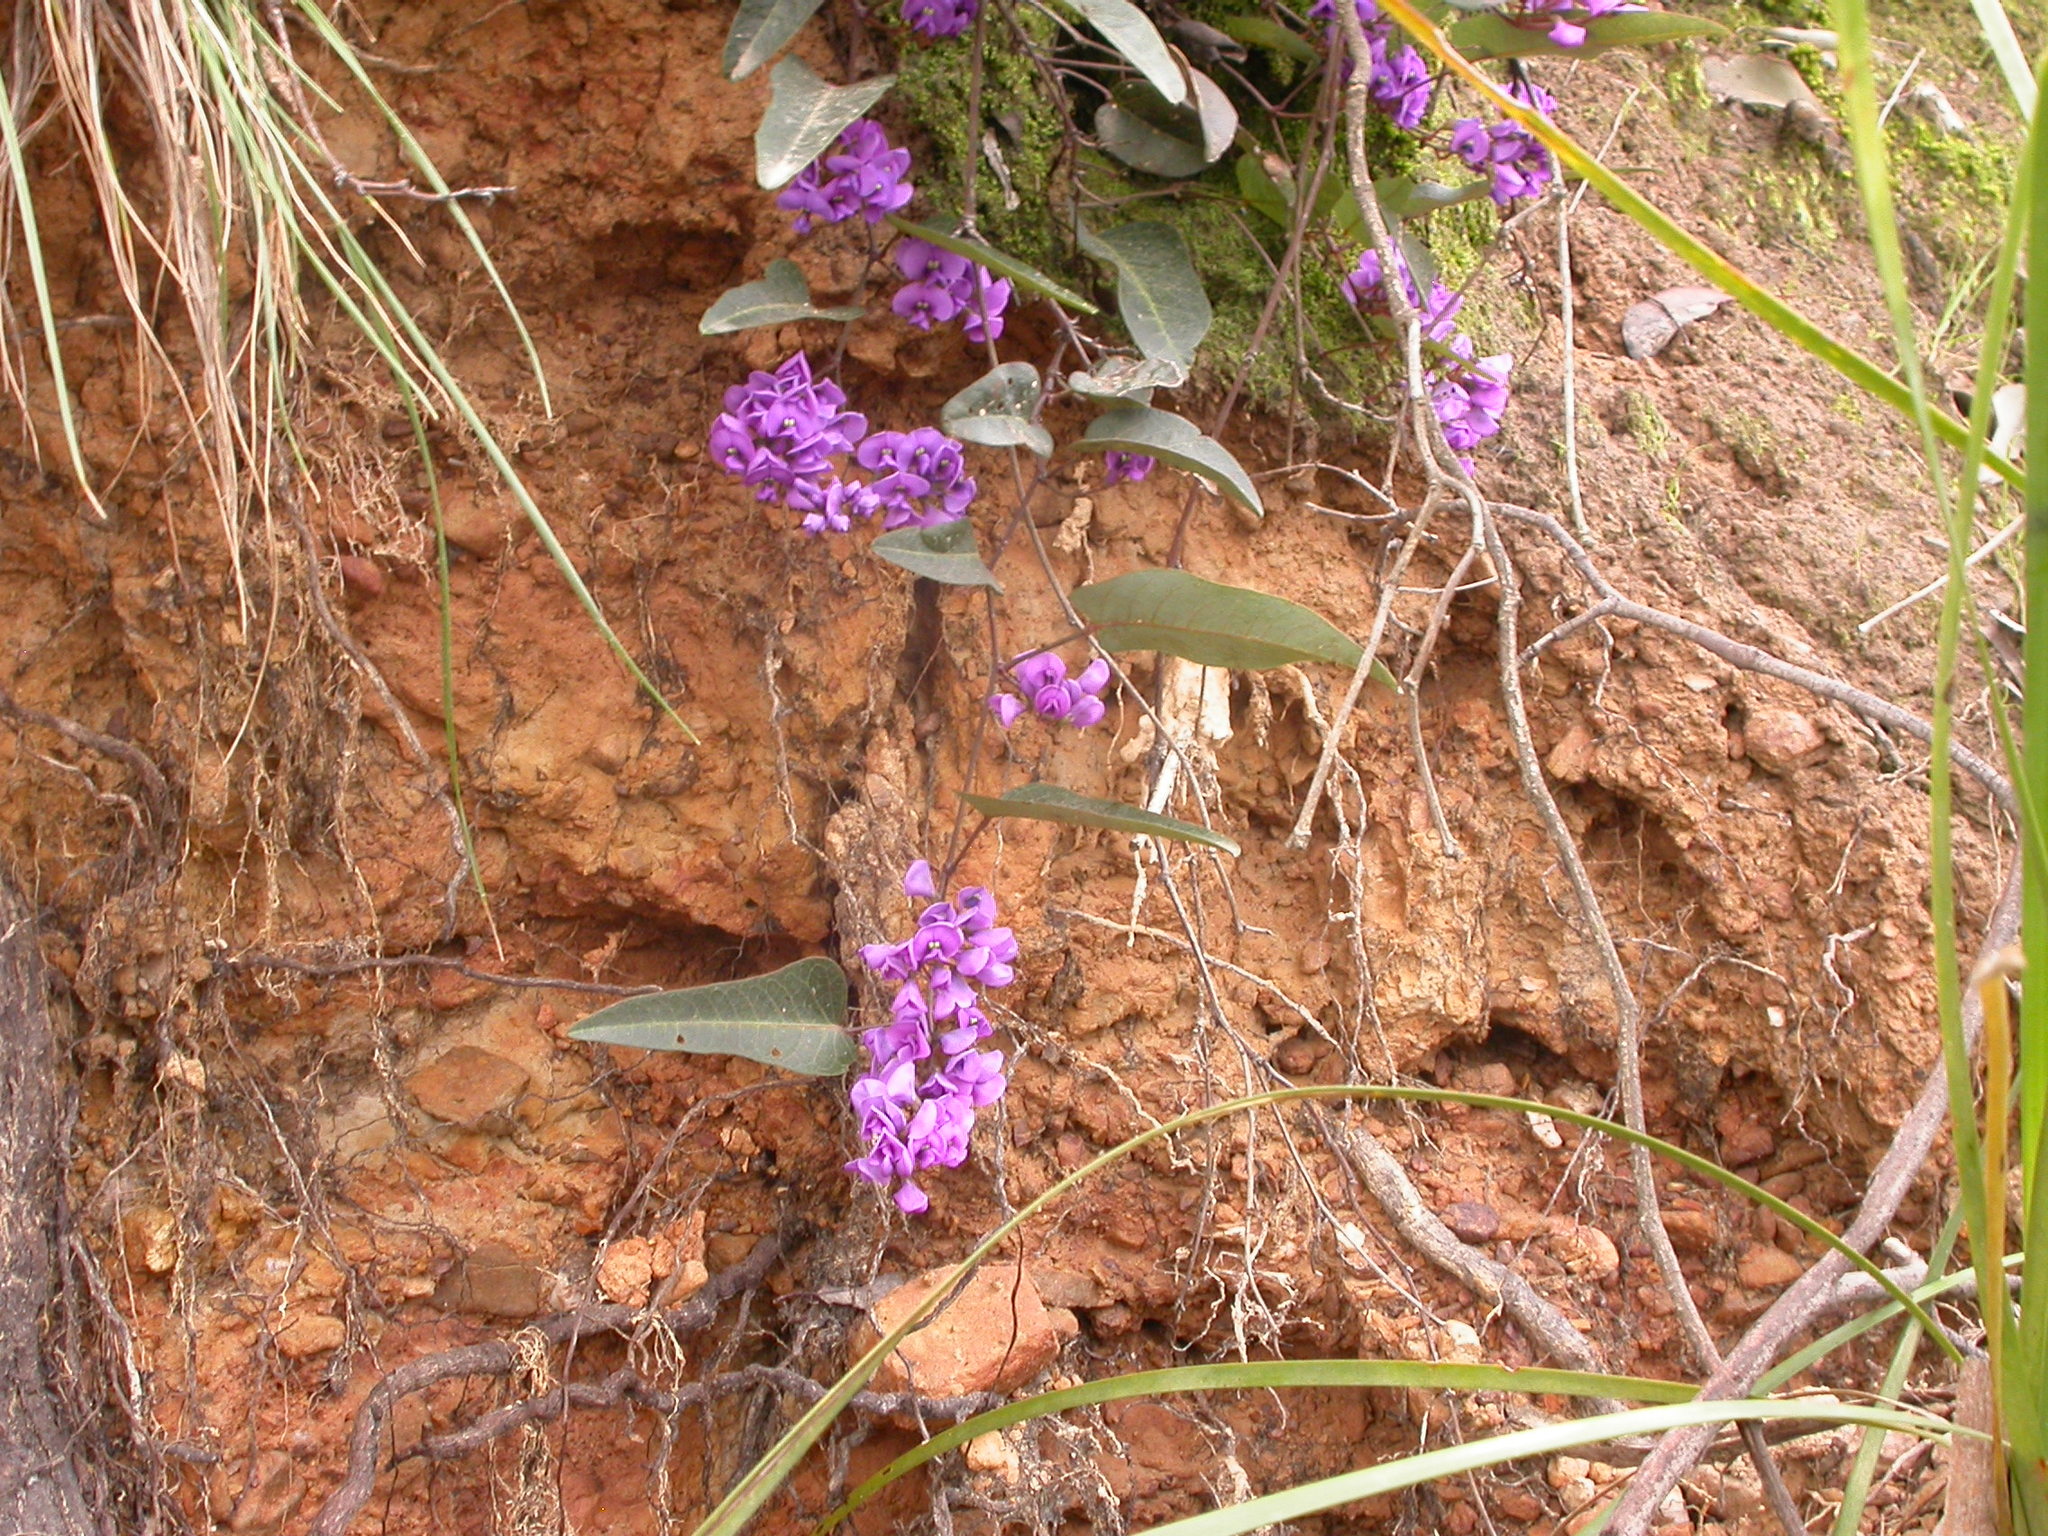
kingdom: Plantae
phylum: Tracheophyta
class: Magnoliopsida
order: Fabales
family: Fabaceae
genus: Hardenbergia
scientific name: Hardenbergia violacea
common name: Coral-pea
